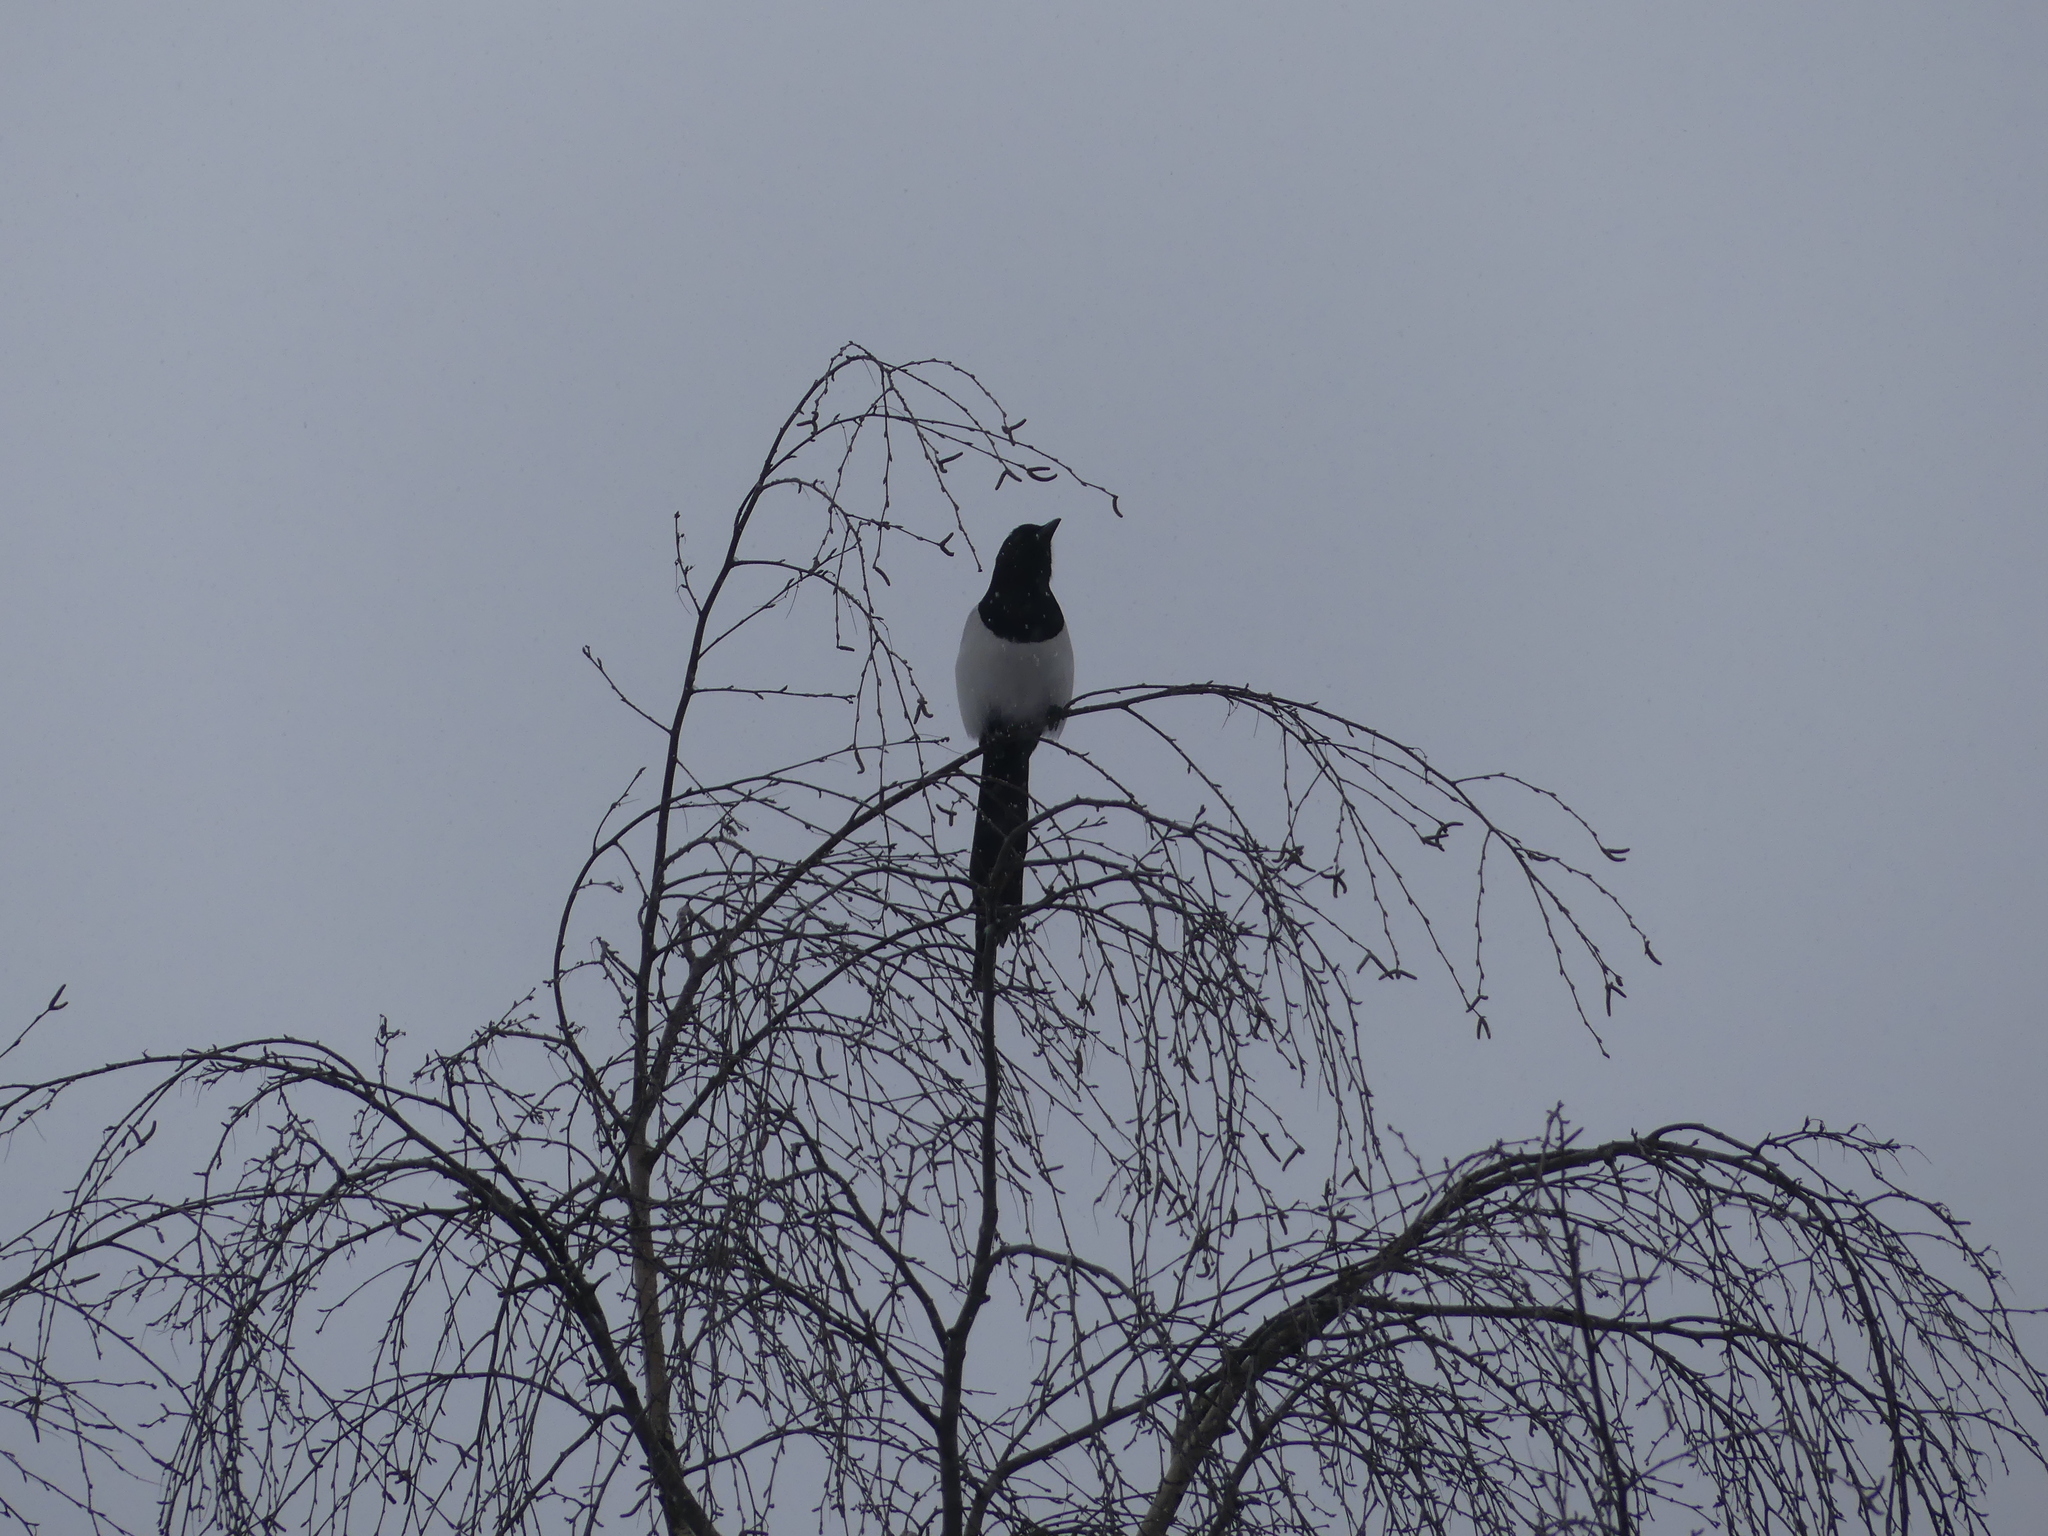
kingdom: Animalia
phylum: Chordata
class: Aves
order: Passeriformes
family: Corvidae
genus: Pica
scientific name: Pica pica
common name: Eurasian magpie
